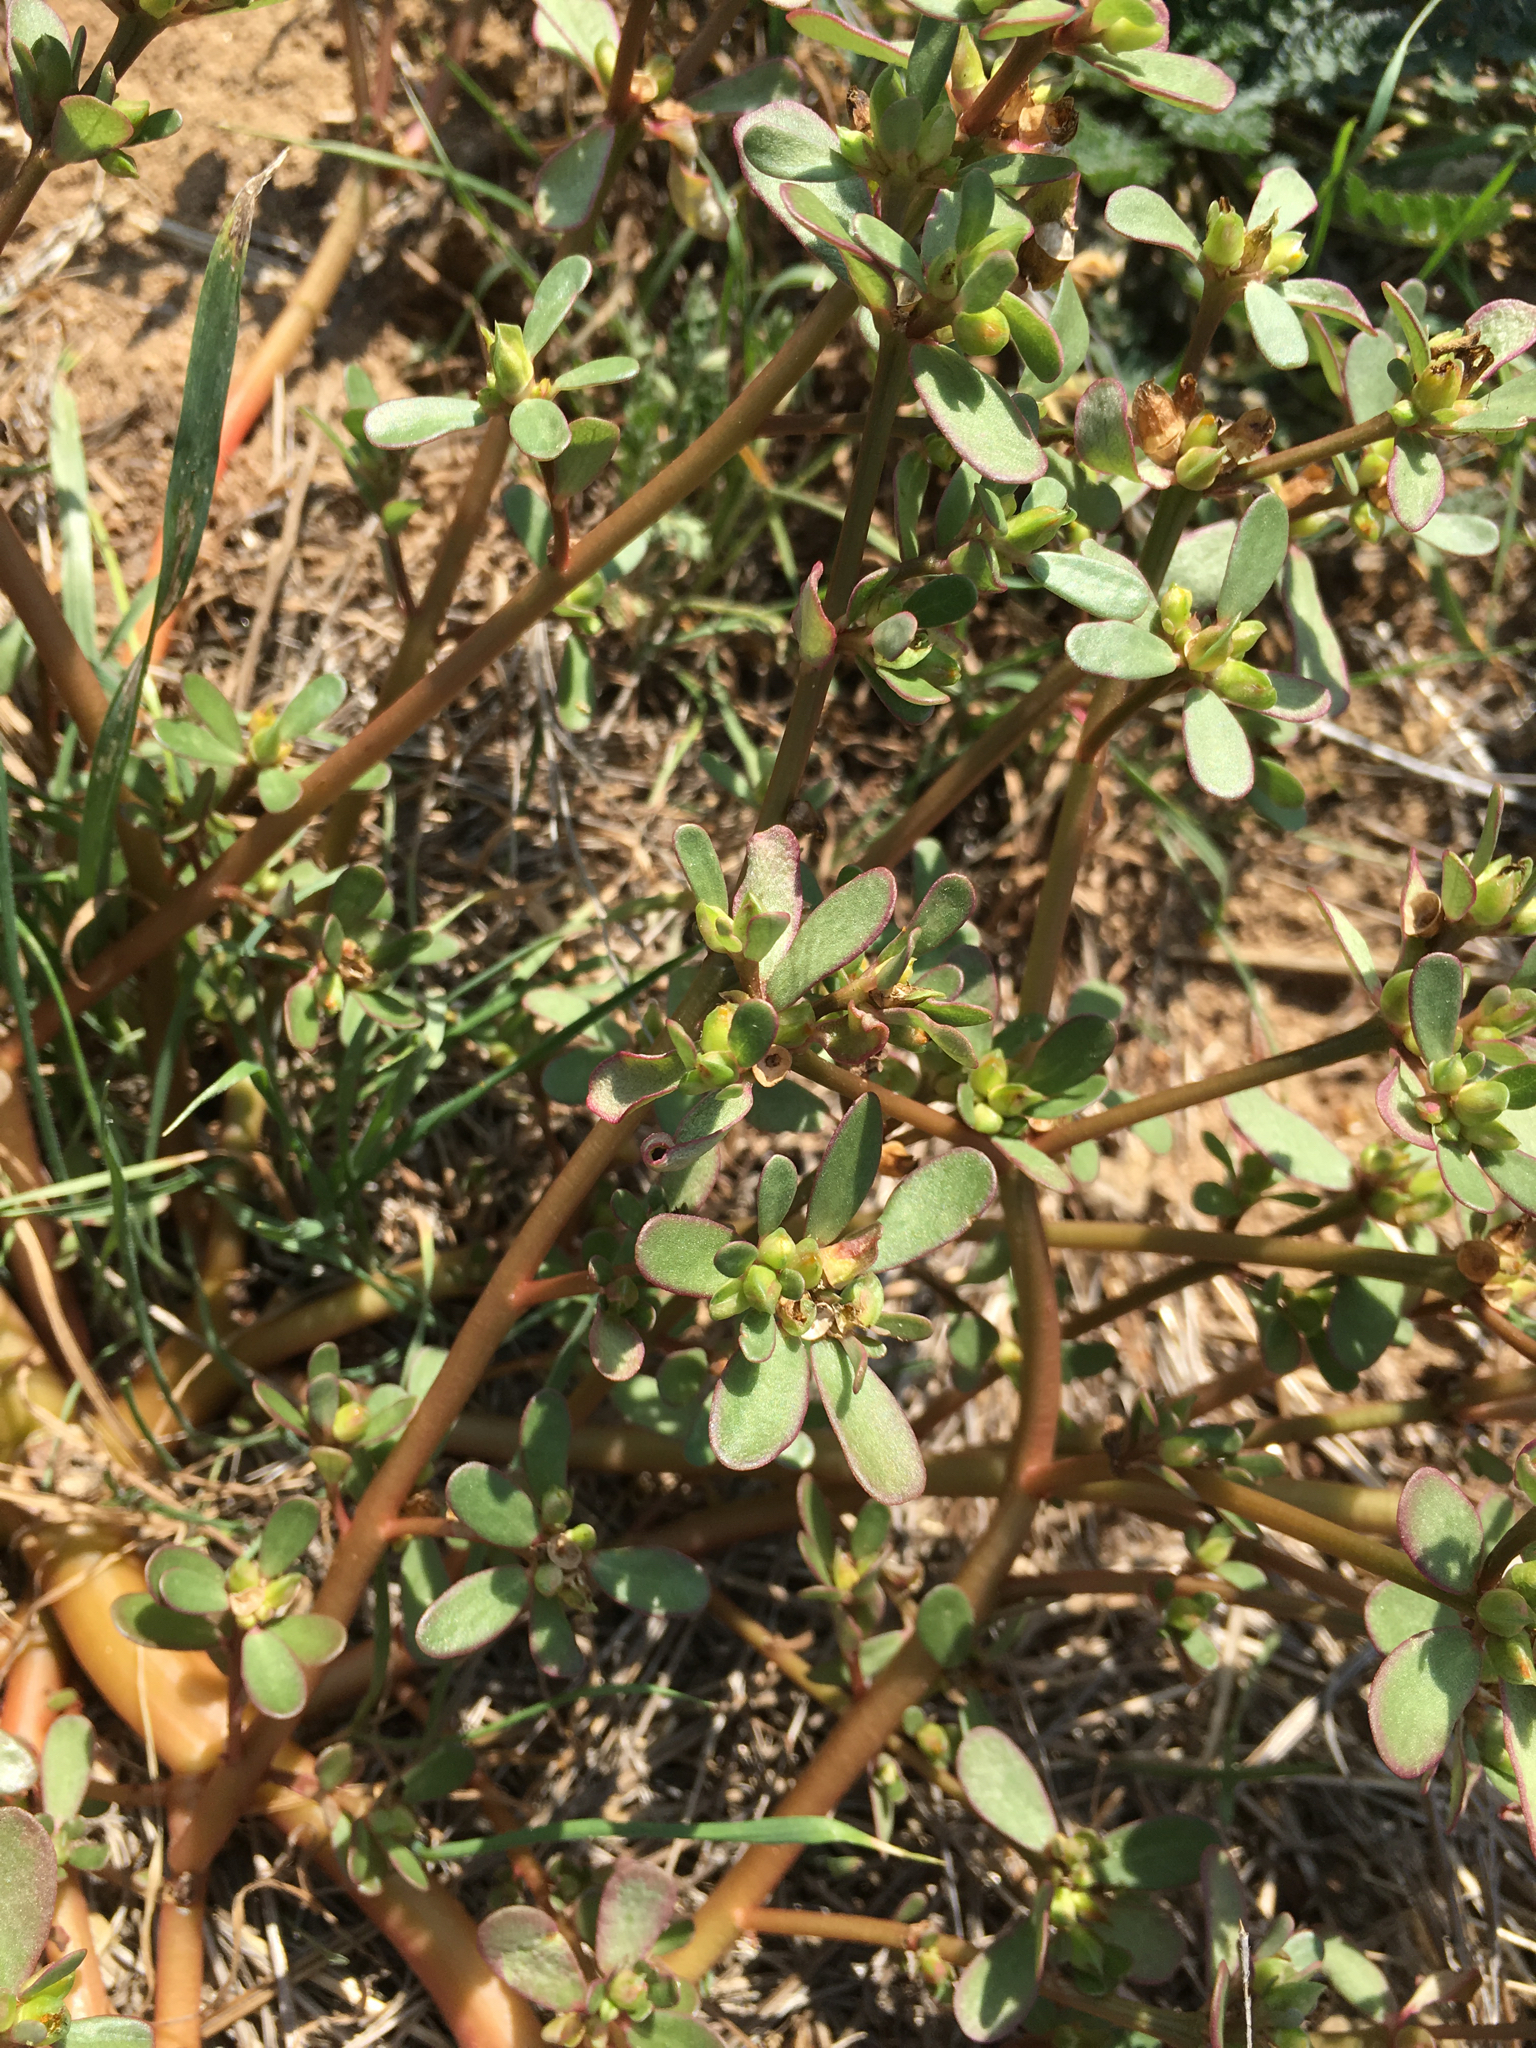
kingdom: Plantae
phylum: Tracheophyta
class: Magnoliopsida
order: Caryophyllales
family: Portulacaceae
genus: Portulaca
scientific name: Portulaca oleracea
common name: Common purslane
